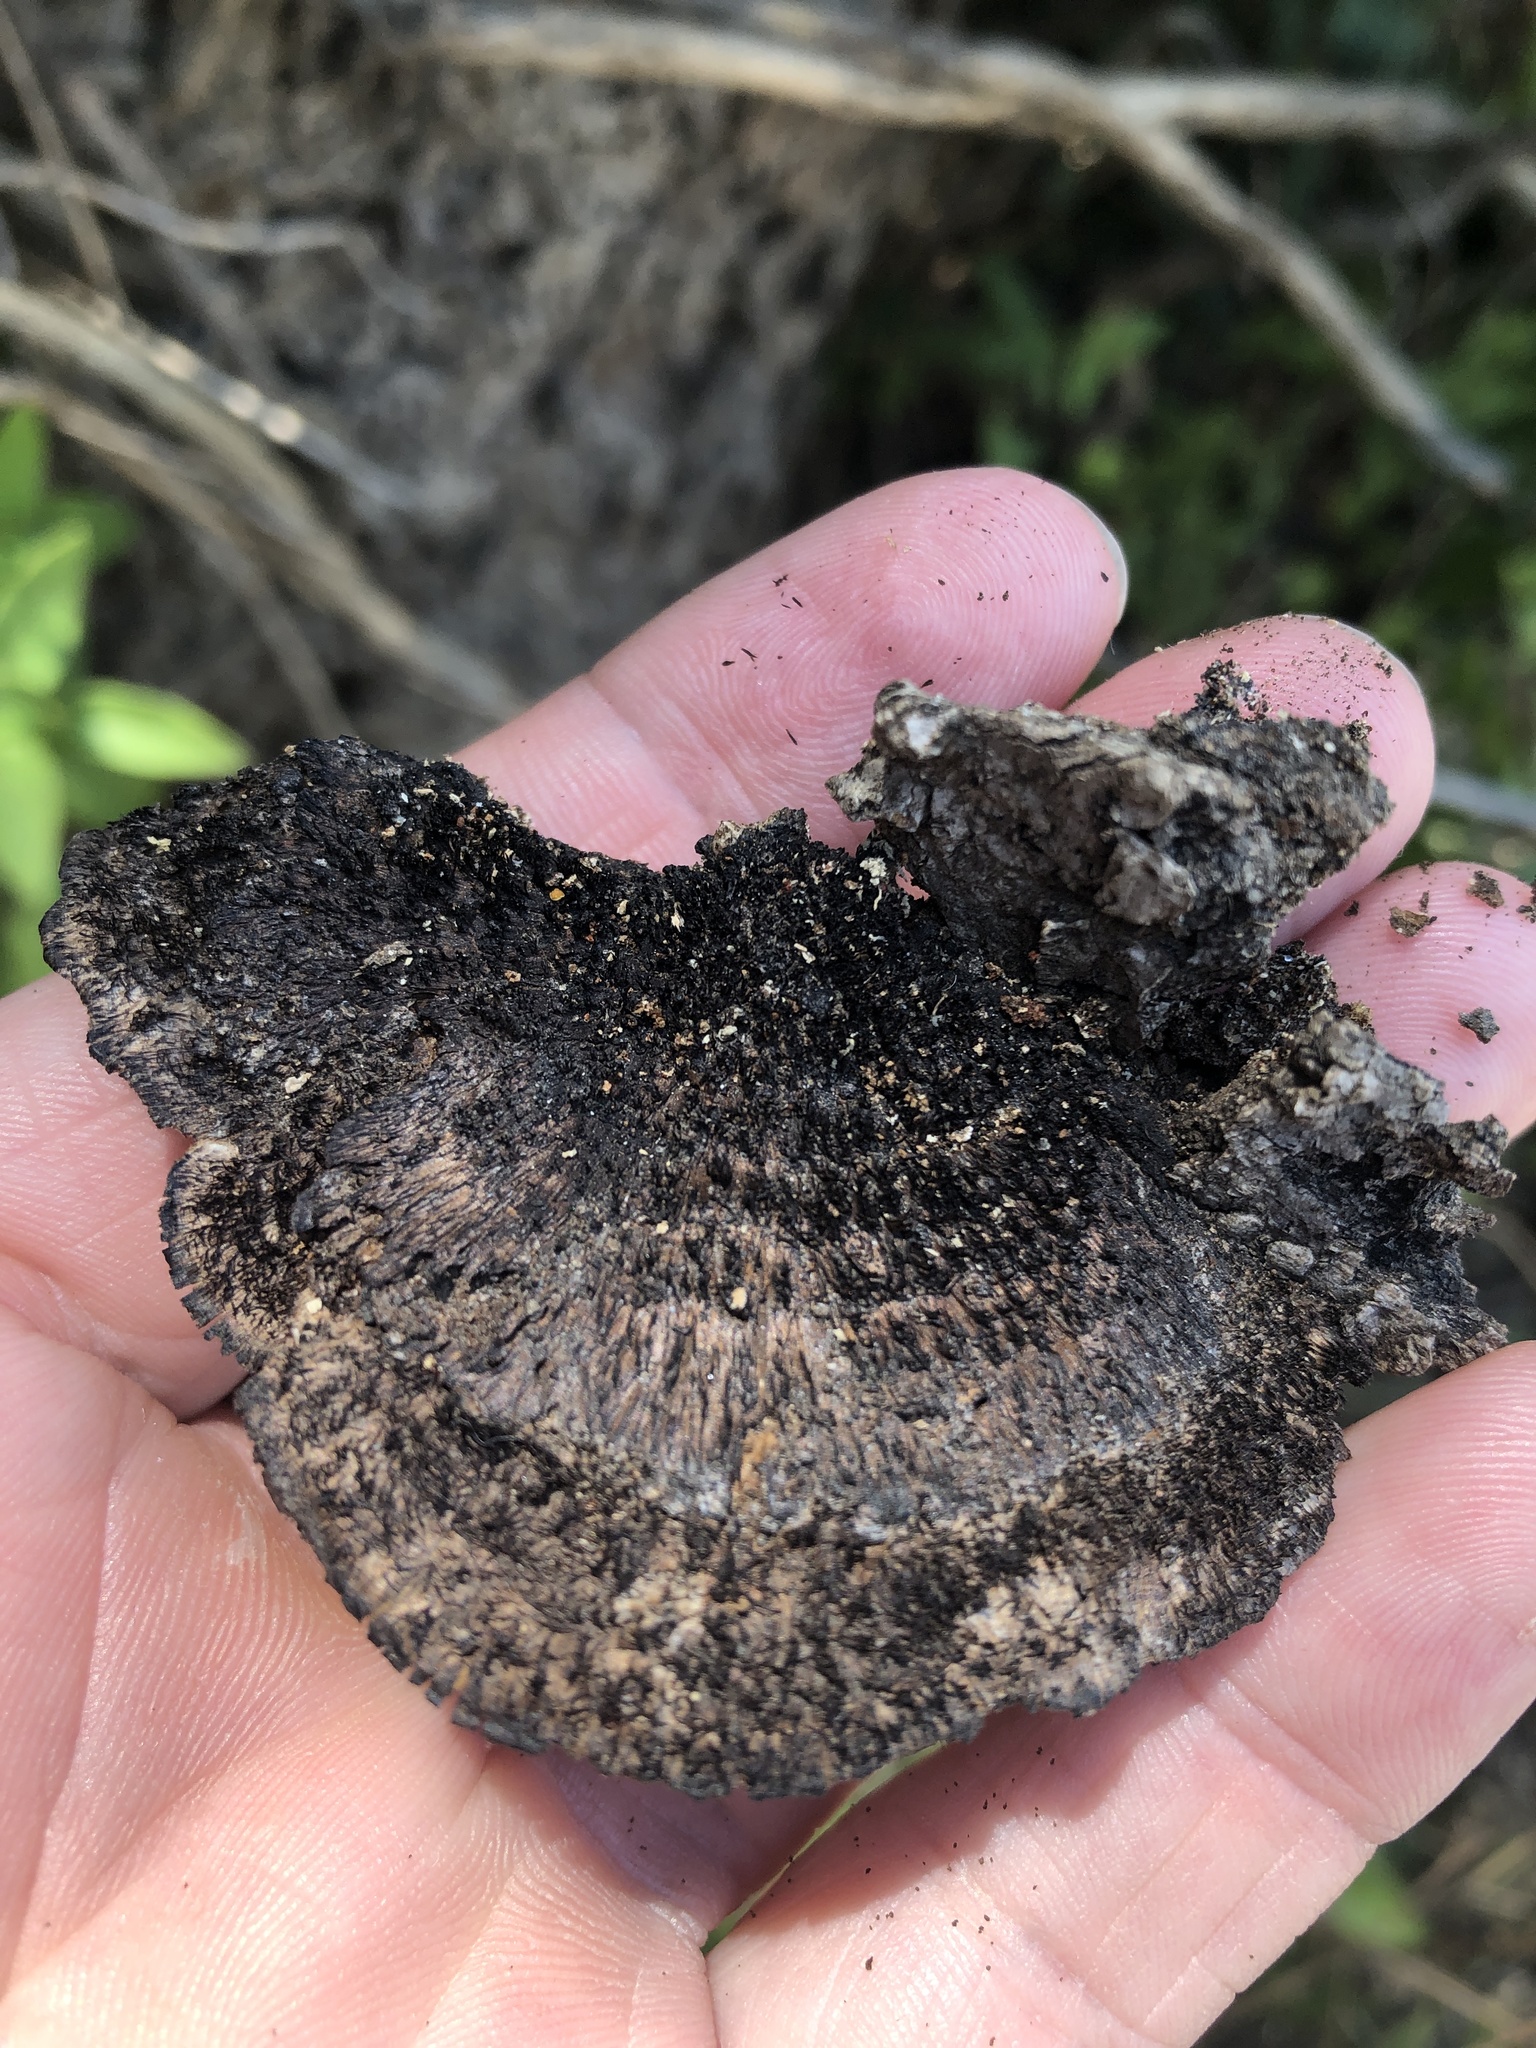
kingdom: Fungi
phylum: Basidiomycota
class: Agaricomycetes
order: Polyporales
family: Cerrenaceae
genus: Cerrena
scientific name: Cerrena hydnoides
